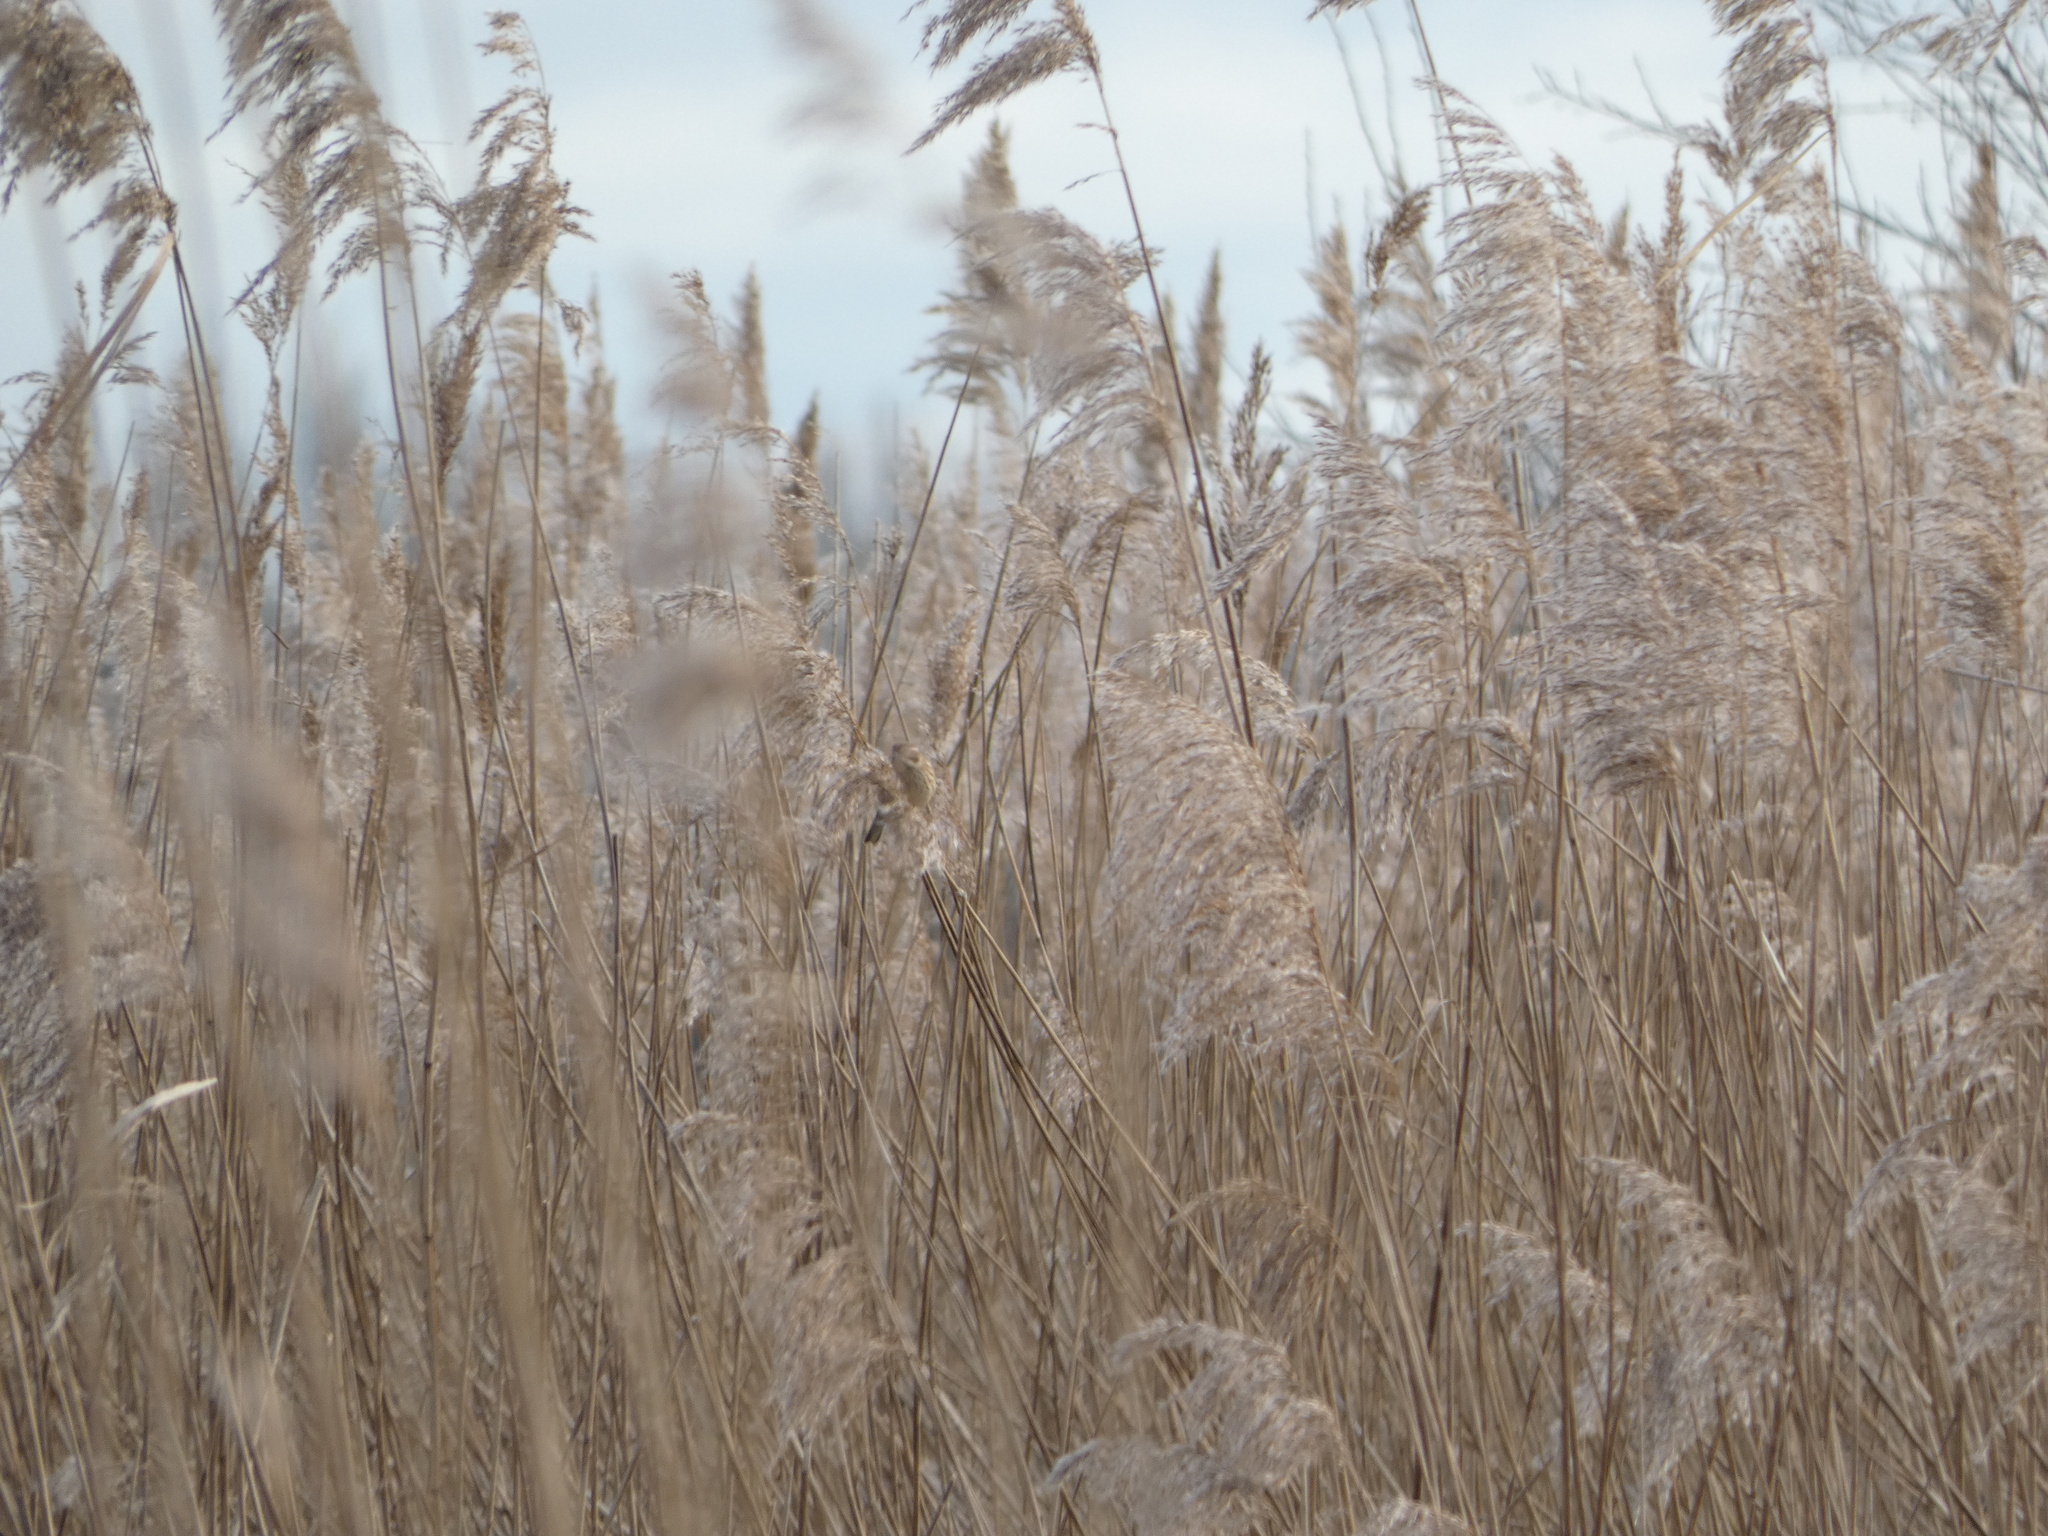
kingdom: Animalia
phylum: Chordata
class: Aves
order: Passeriformes
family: Emberizidae
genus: Emberiza
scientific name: Emberiza schoeniclus
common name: Reed bunting
